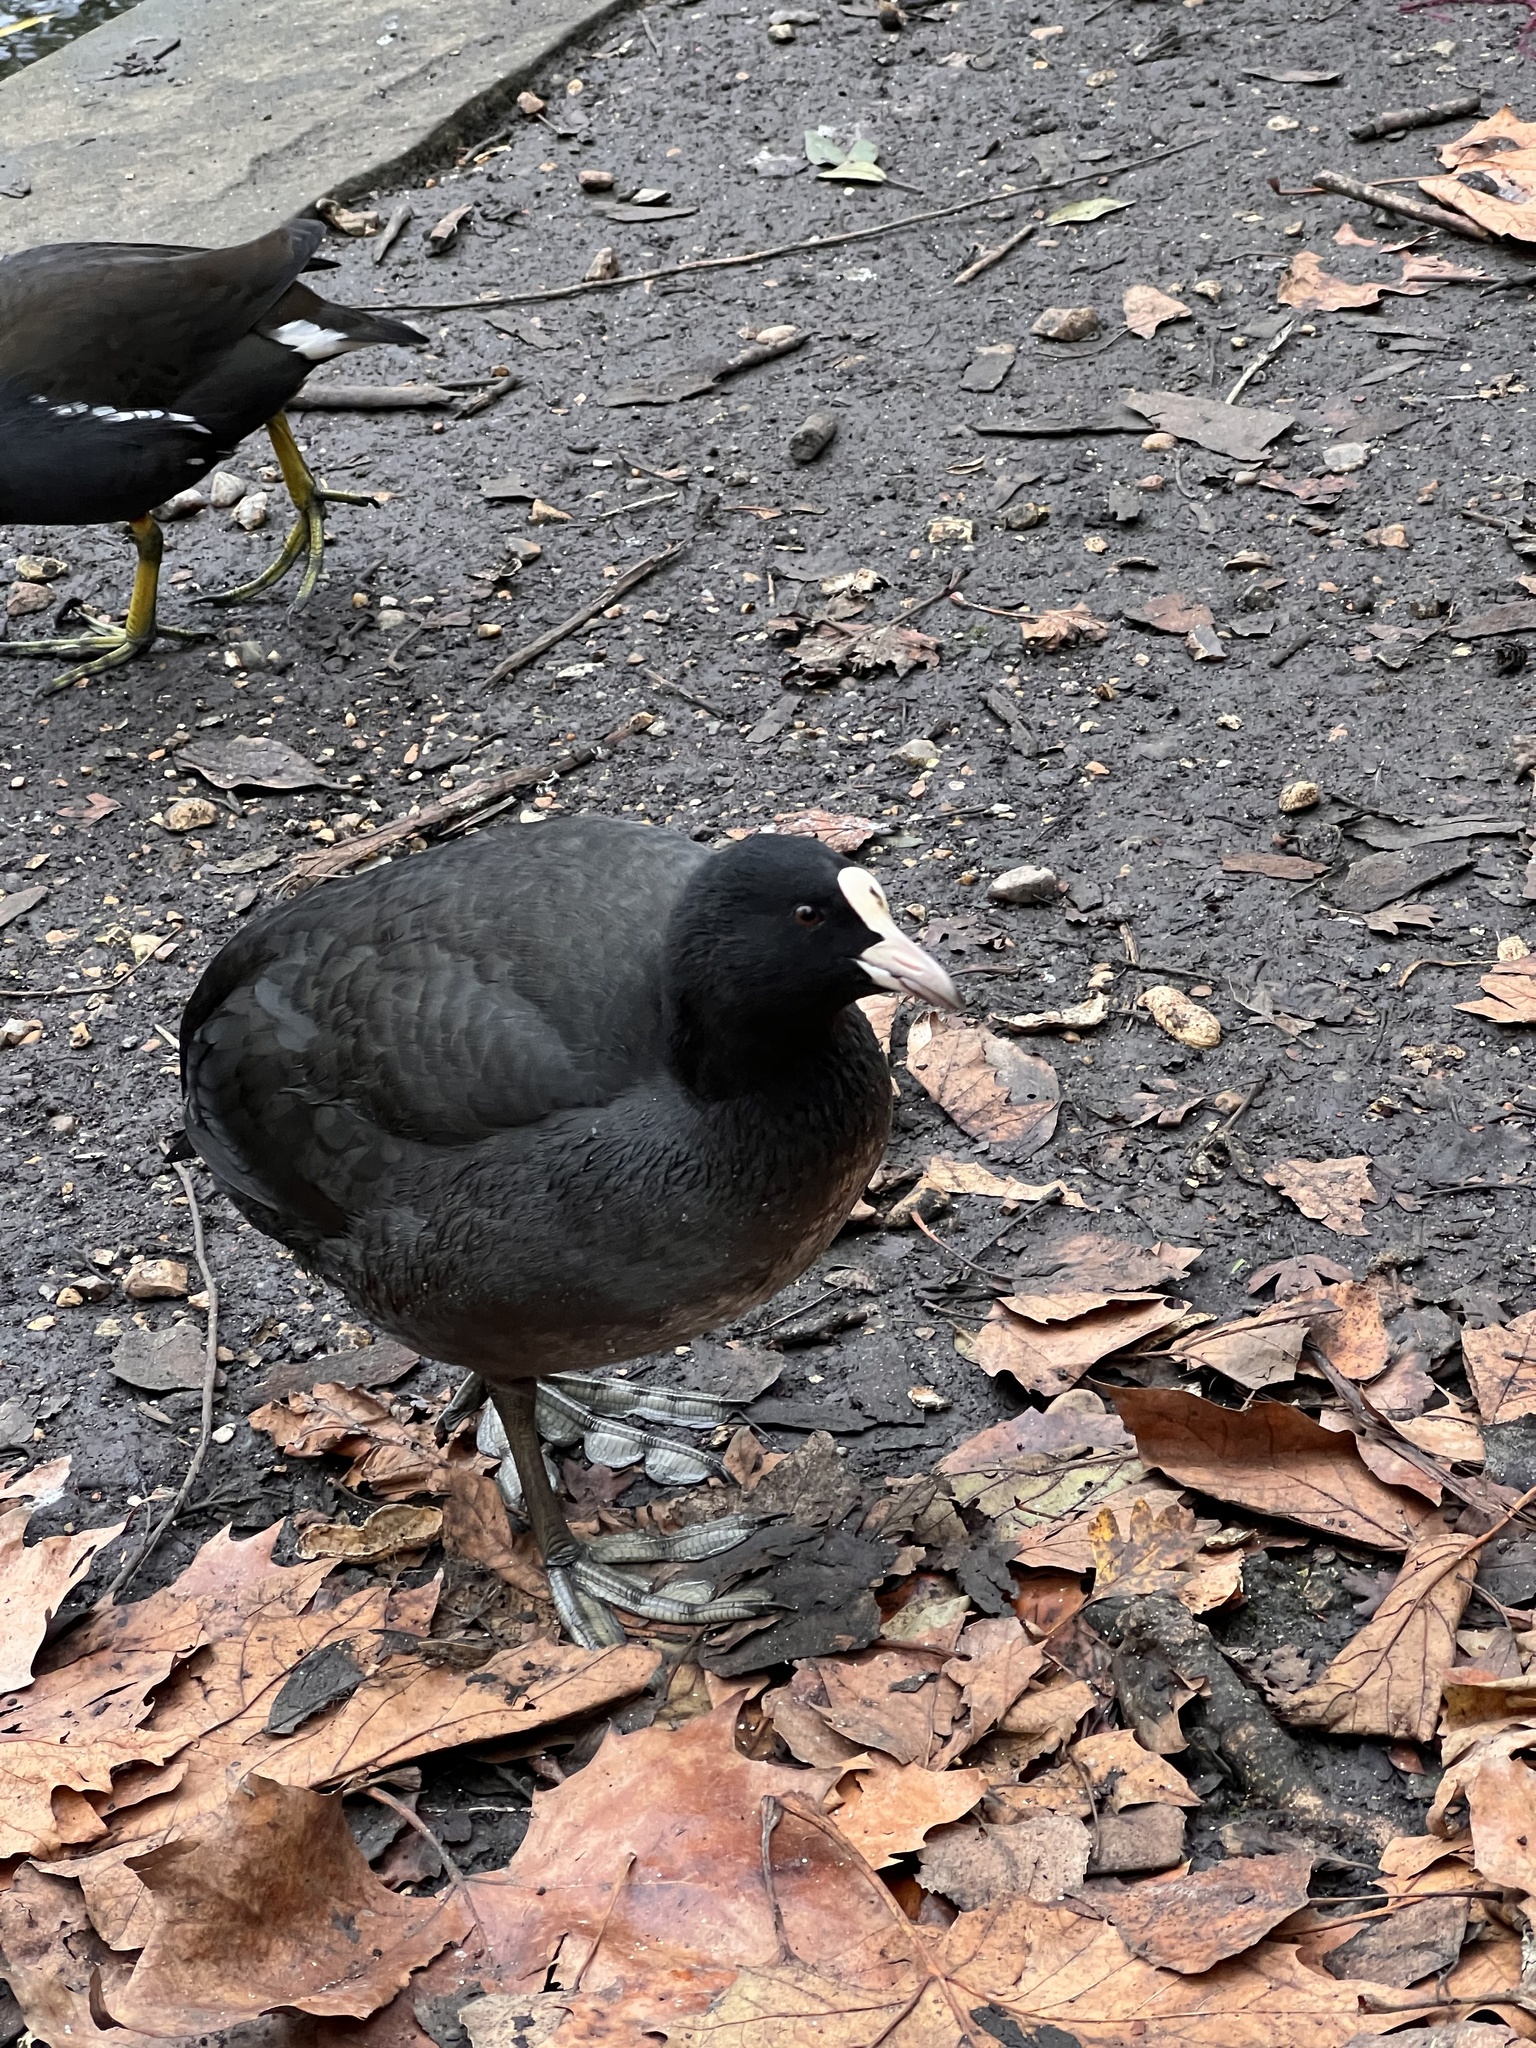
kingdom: Animalia
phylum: Chordata
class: Aves
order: Gruiformes
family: Rallidae
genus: Fulica
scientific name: Fulica atra
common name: Eurasian coot
